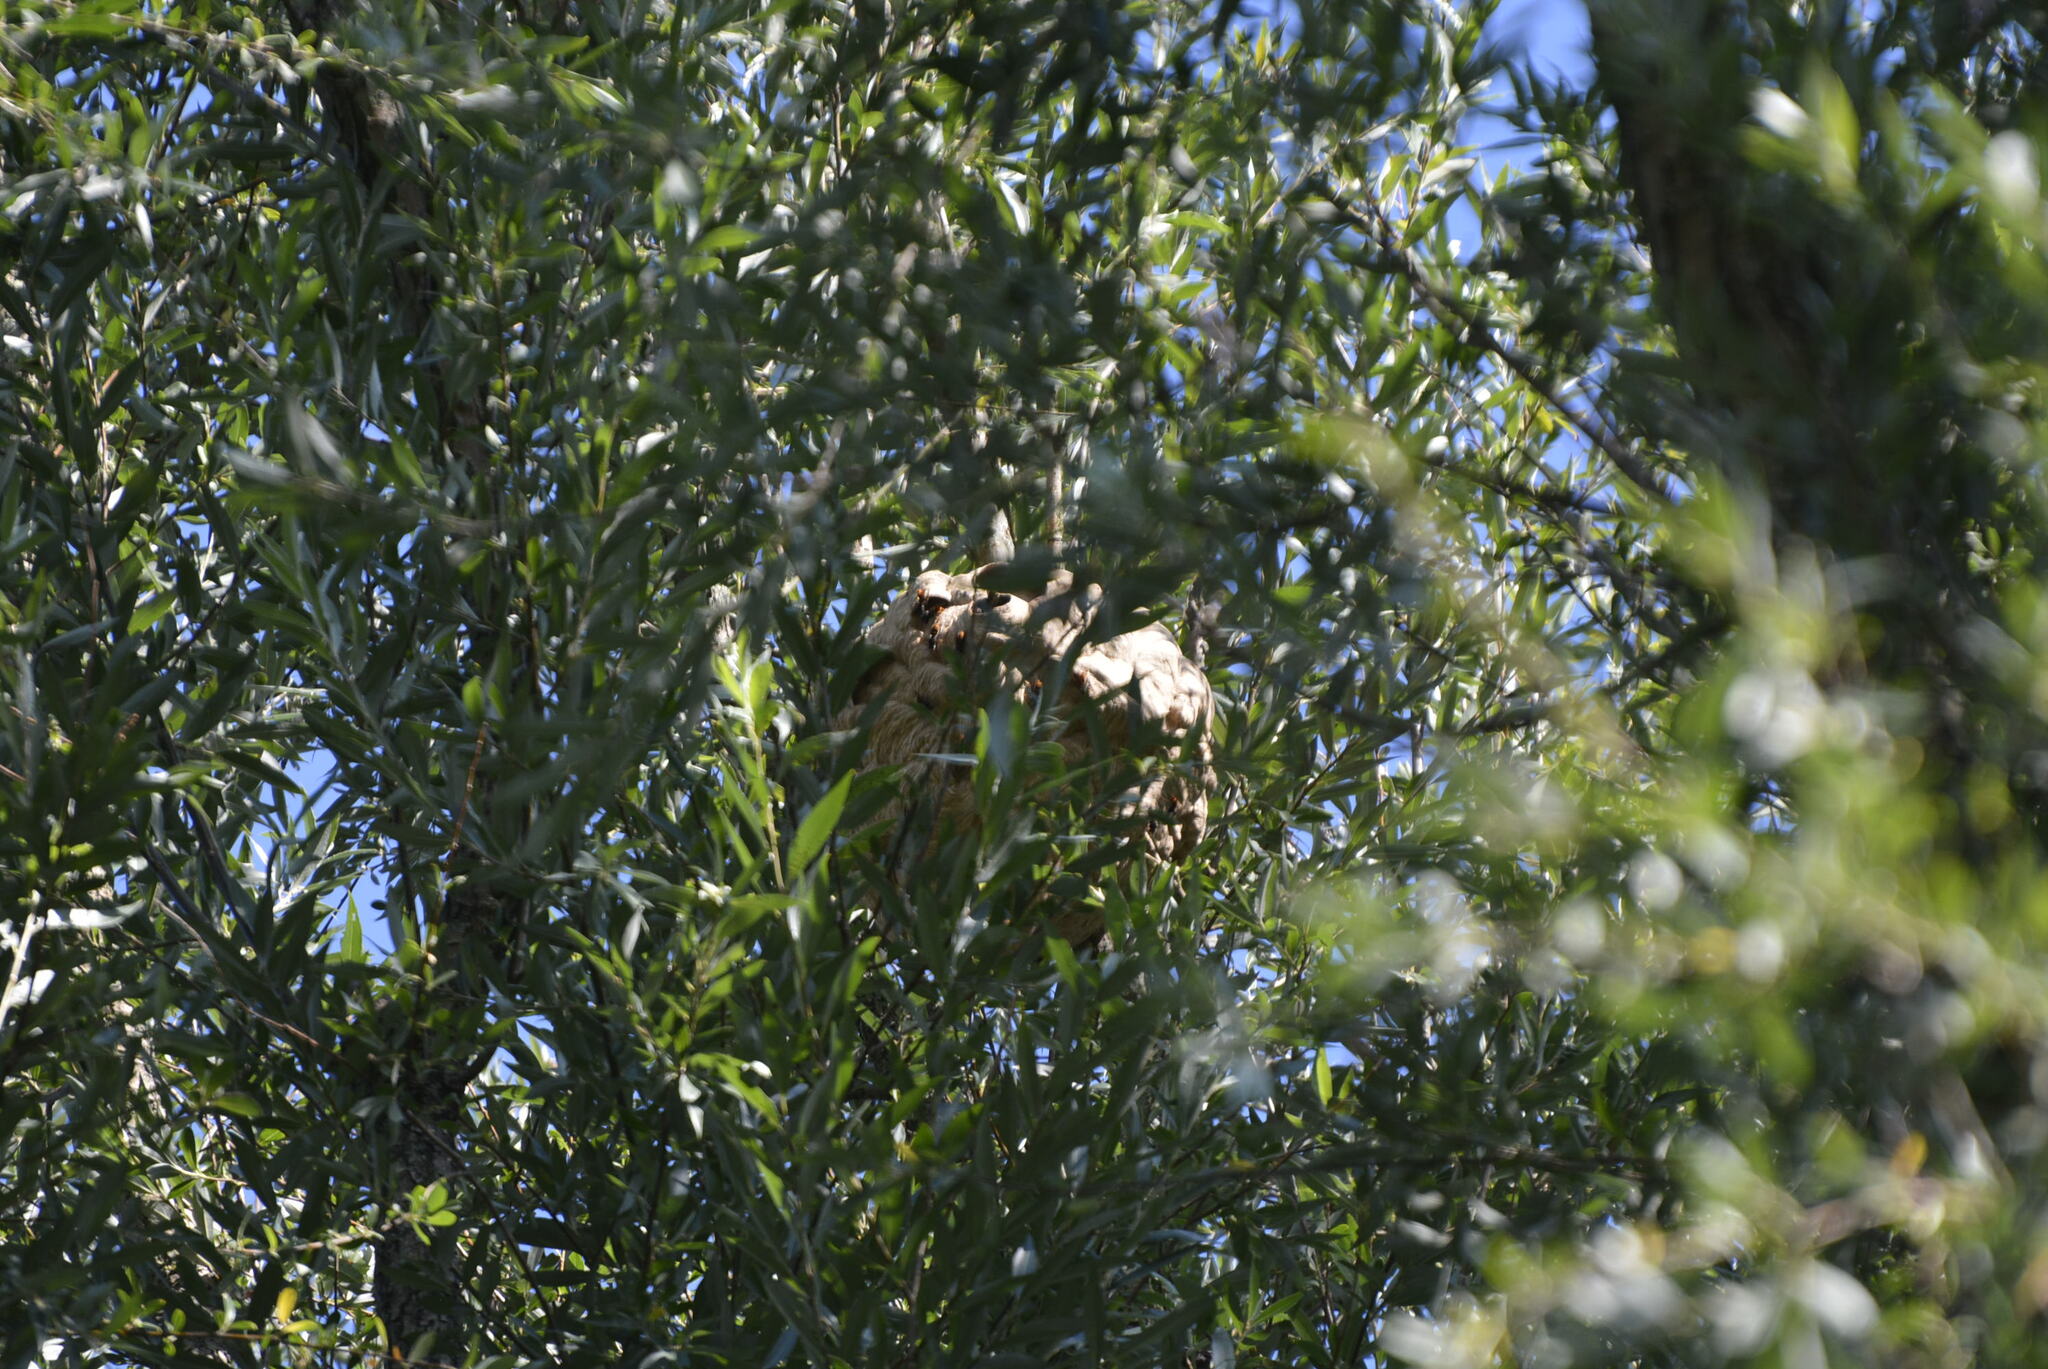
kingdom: Animalia
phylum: Arthropoda
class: Insecta
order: Hymenoptera
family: Vespidae
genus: Vespa
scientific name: Vespa velutina
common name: Asian hornet
